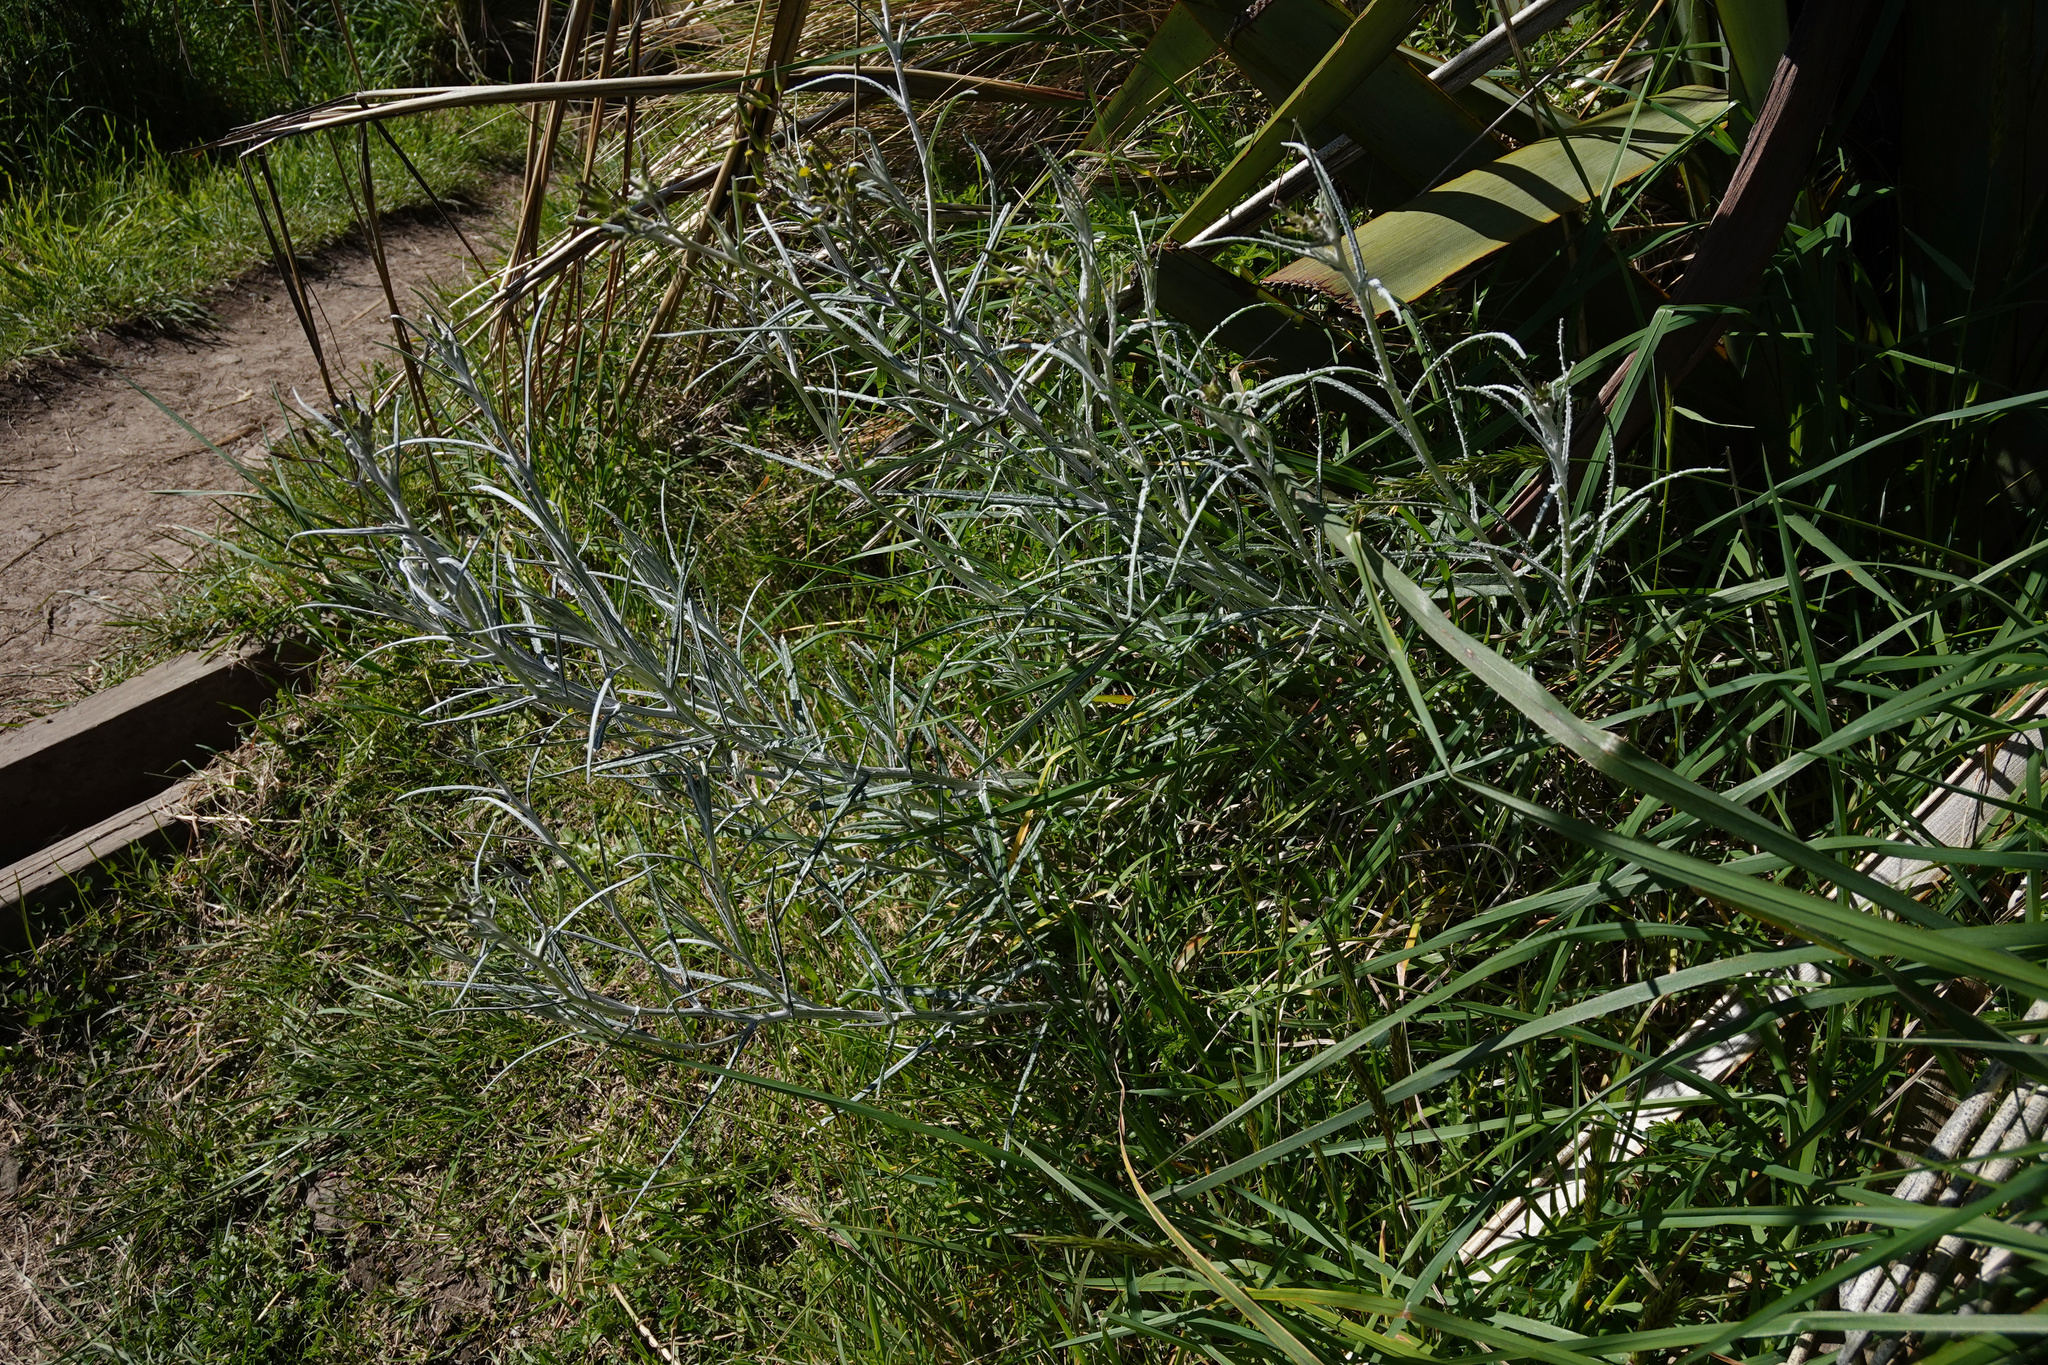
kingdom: Plantae
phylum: Tracheophyta
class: Magnoliopsida
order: Asterales
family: Asteraceae
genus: Senecio
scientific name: Senecio quadridentatus
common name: Cotton fireweed
